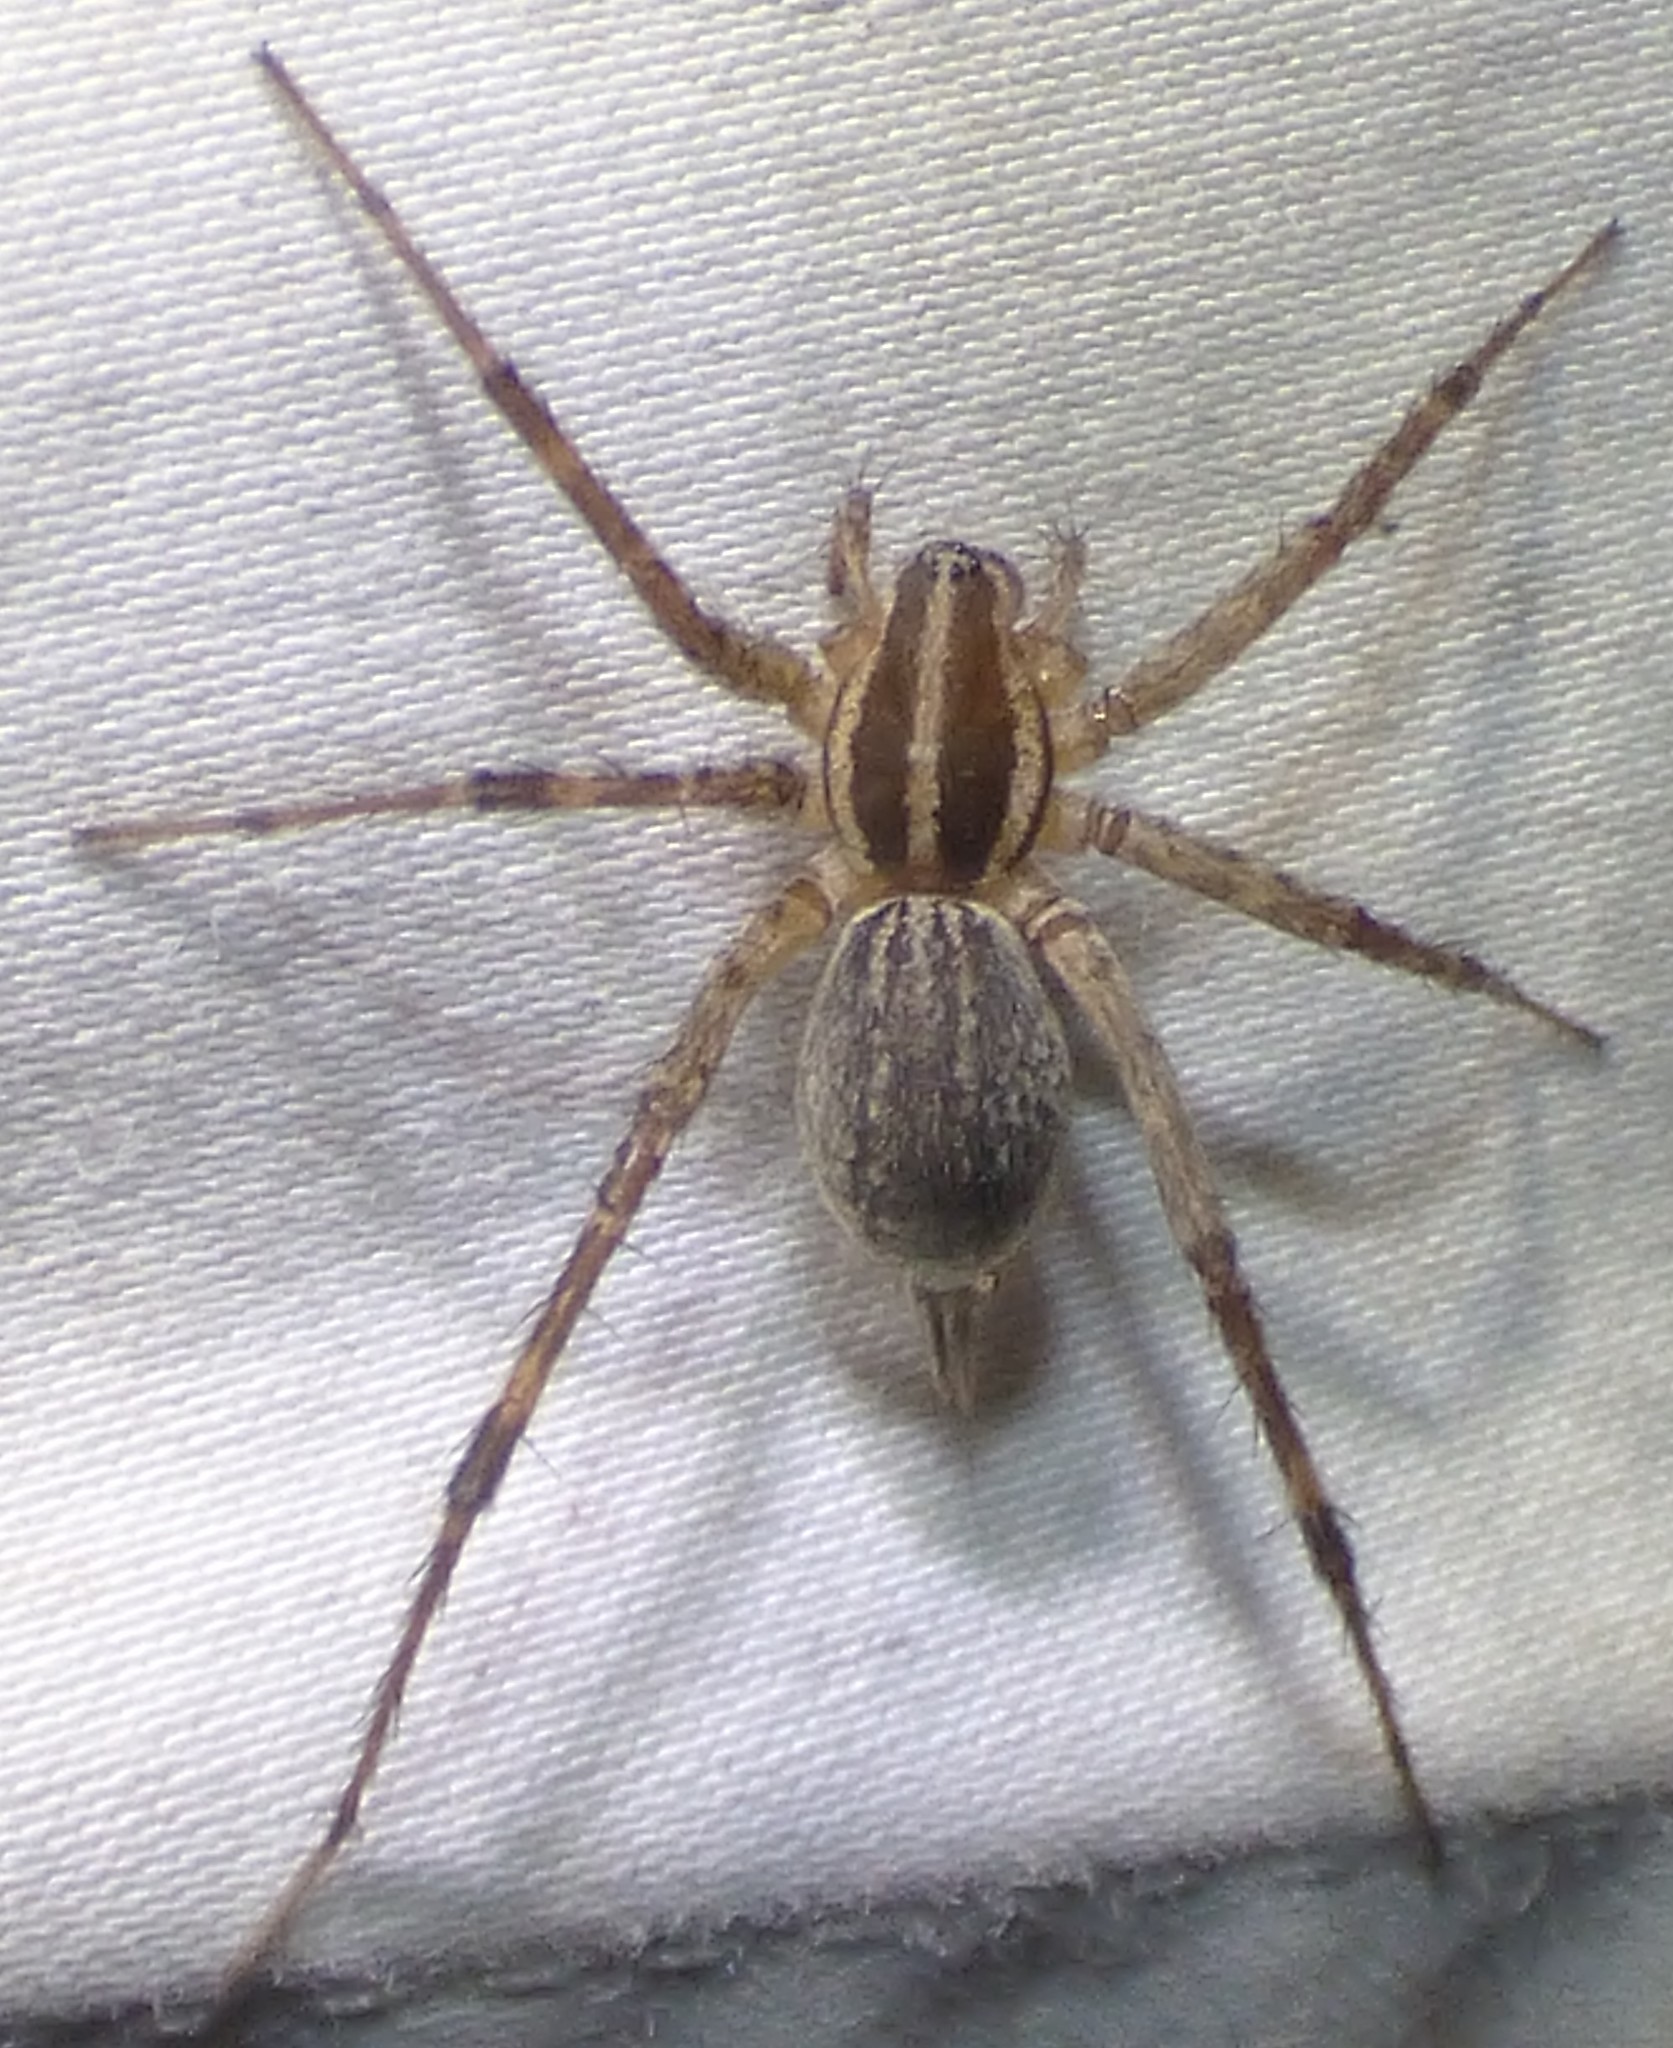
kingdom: Animalia
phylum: Arthropoda
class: Arachnida
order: Araneae
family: Agelenidae
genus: Agelenopsis
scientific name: Agelenopsis
